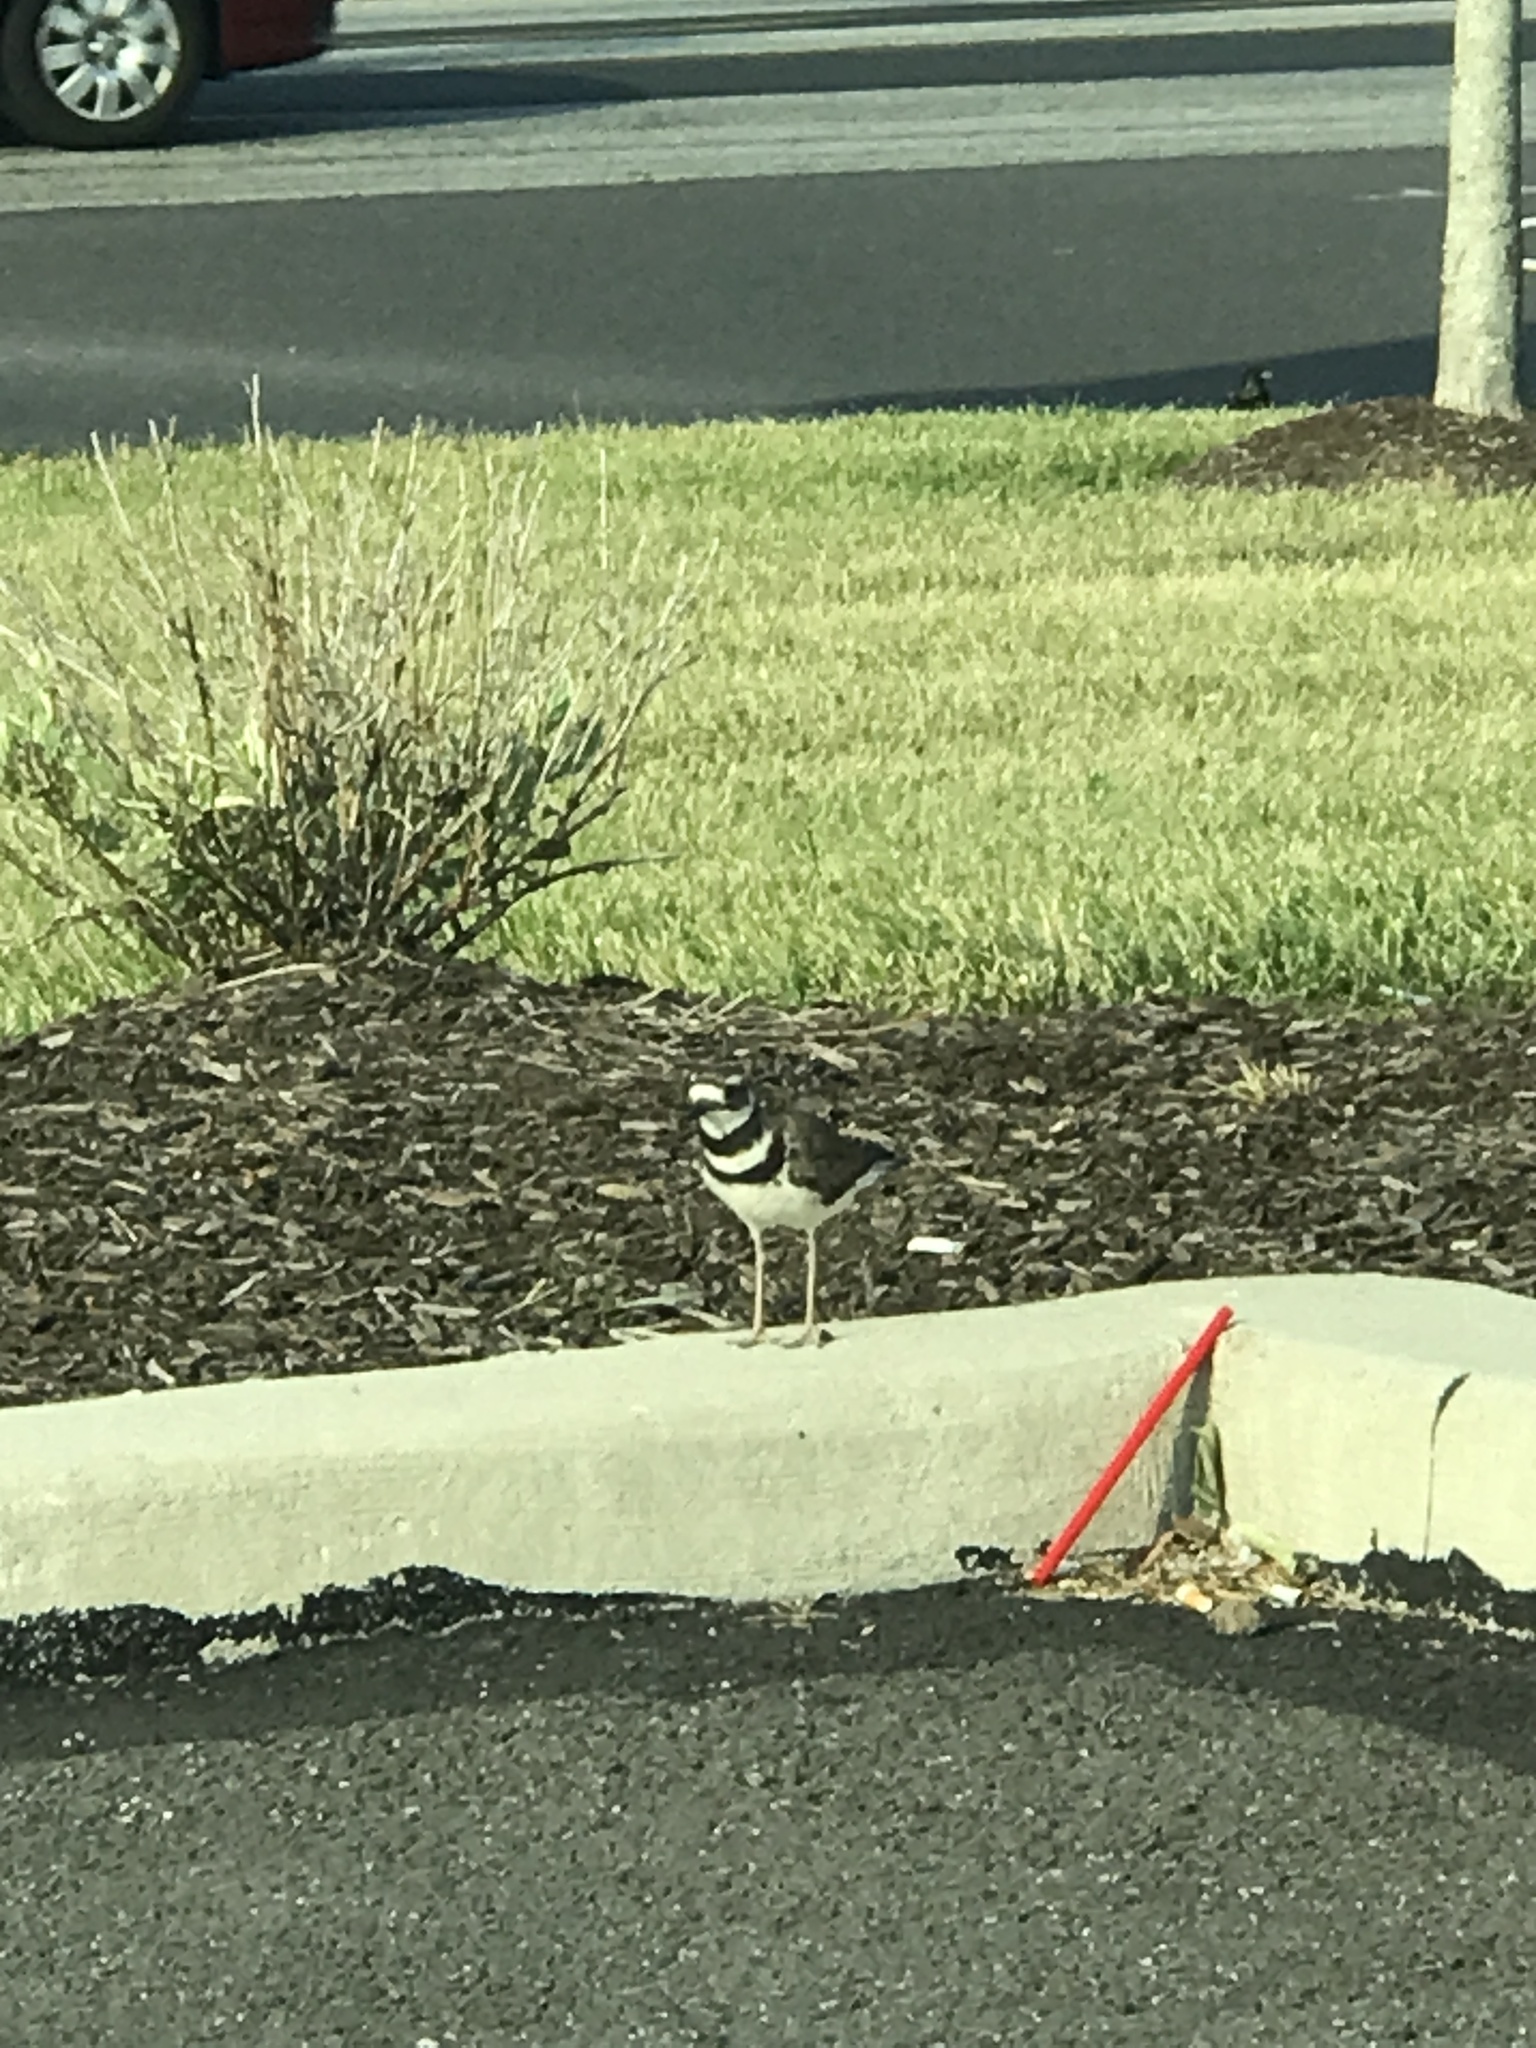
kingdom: Animalia
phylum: Chordata
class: Aves
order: Charadriiformes
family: Charadriidae
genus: Charadrius
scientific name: Charadrius vociferus
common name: Killdeer
